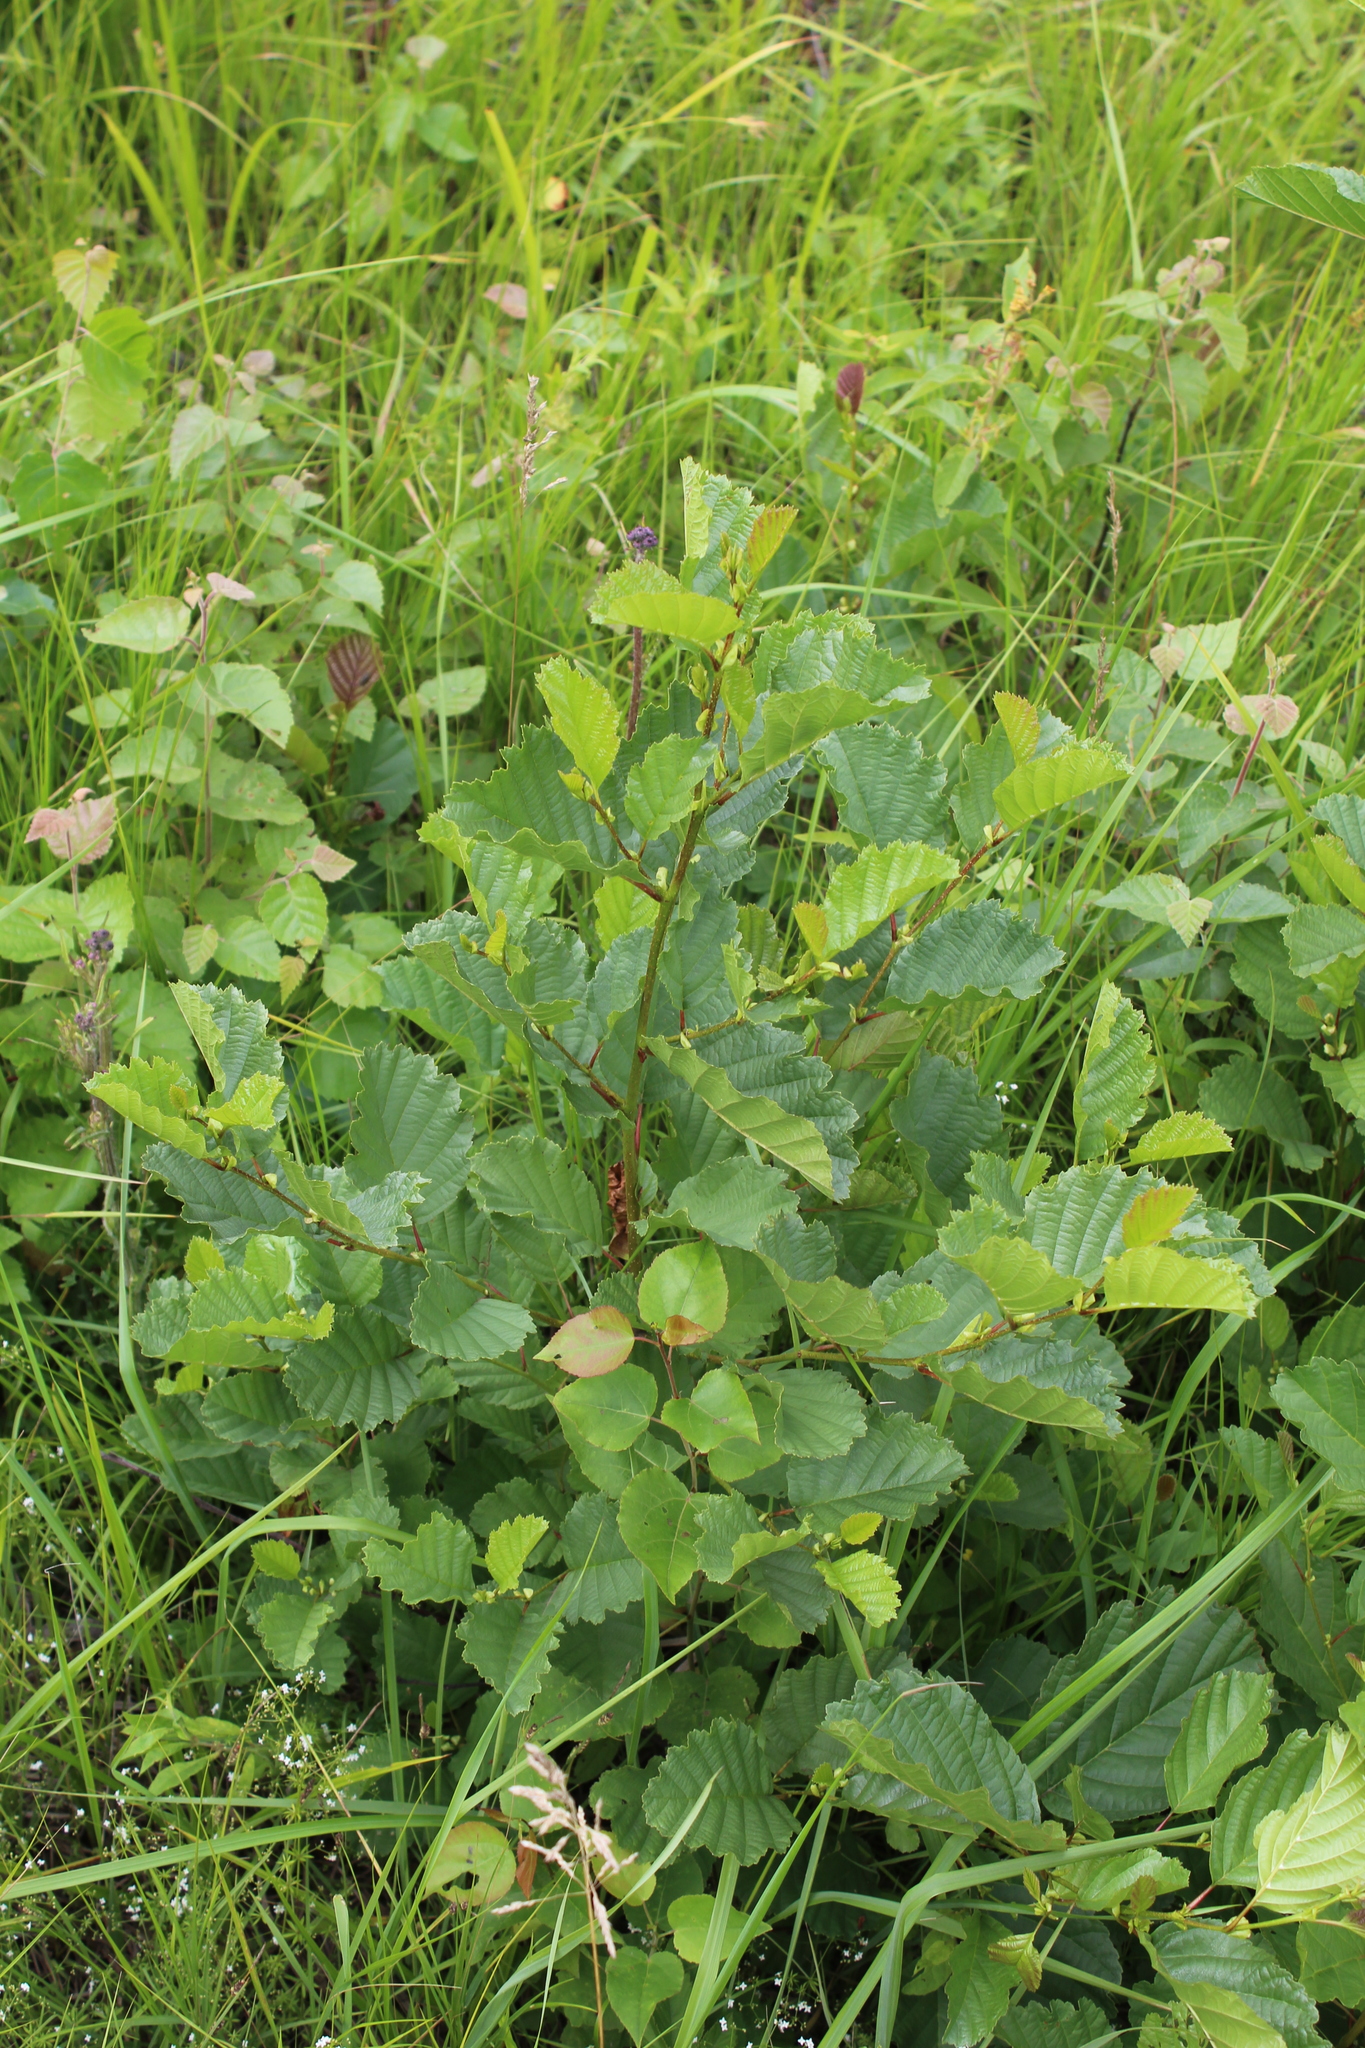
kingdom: Plantae
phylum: Tracheophyta
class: Magnoliopsida
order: Fagales
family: Betulaceae
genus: Alnus
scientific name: Alnus glutinosa
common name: Black alder
